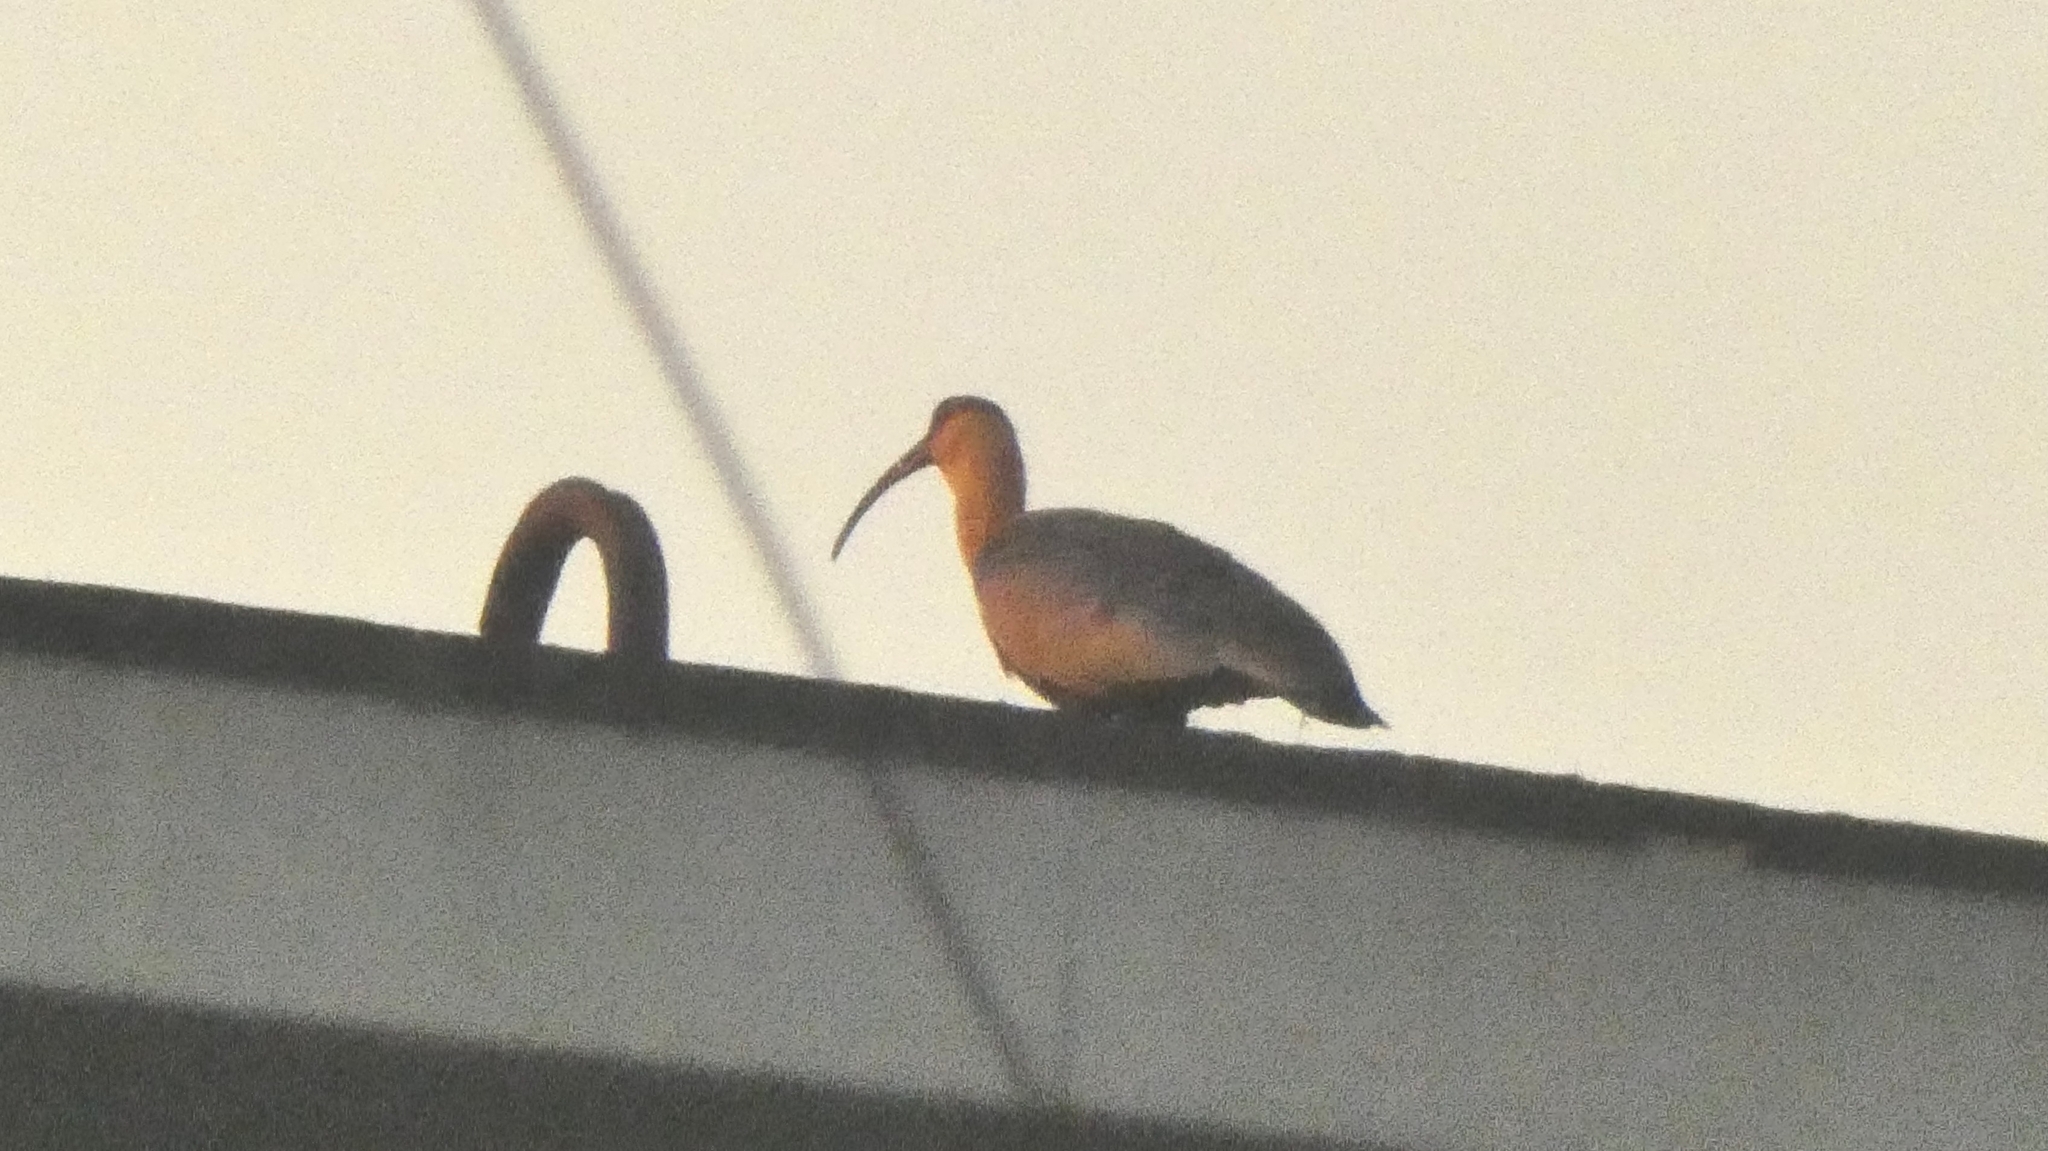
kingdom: Animalia
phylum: Chordata
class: Aves
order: Pelecaniformes
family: Threskiornithidae
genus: Theristicus
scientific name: Theristicus caudatus
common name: Buff-necked ibis
